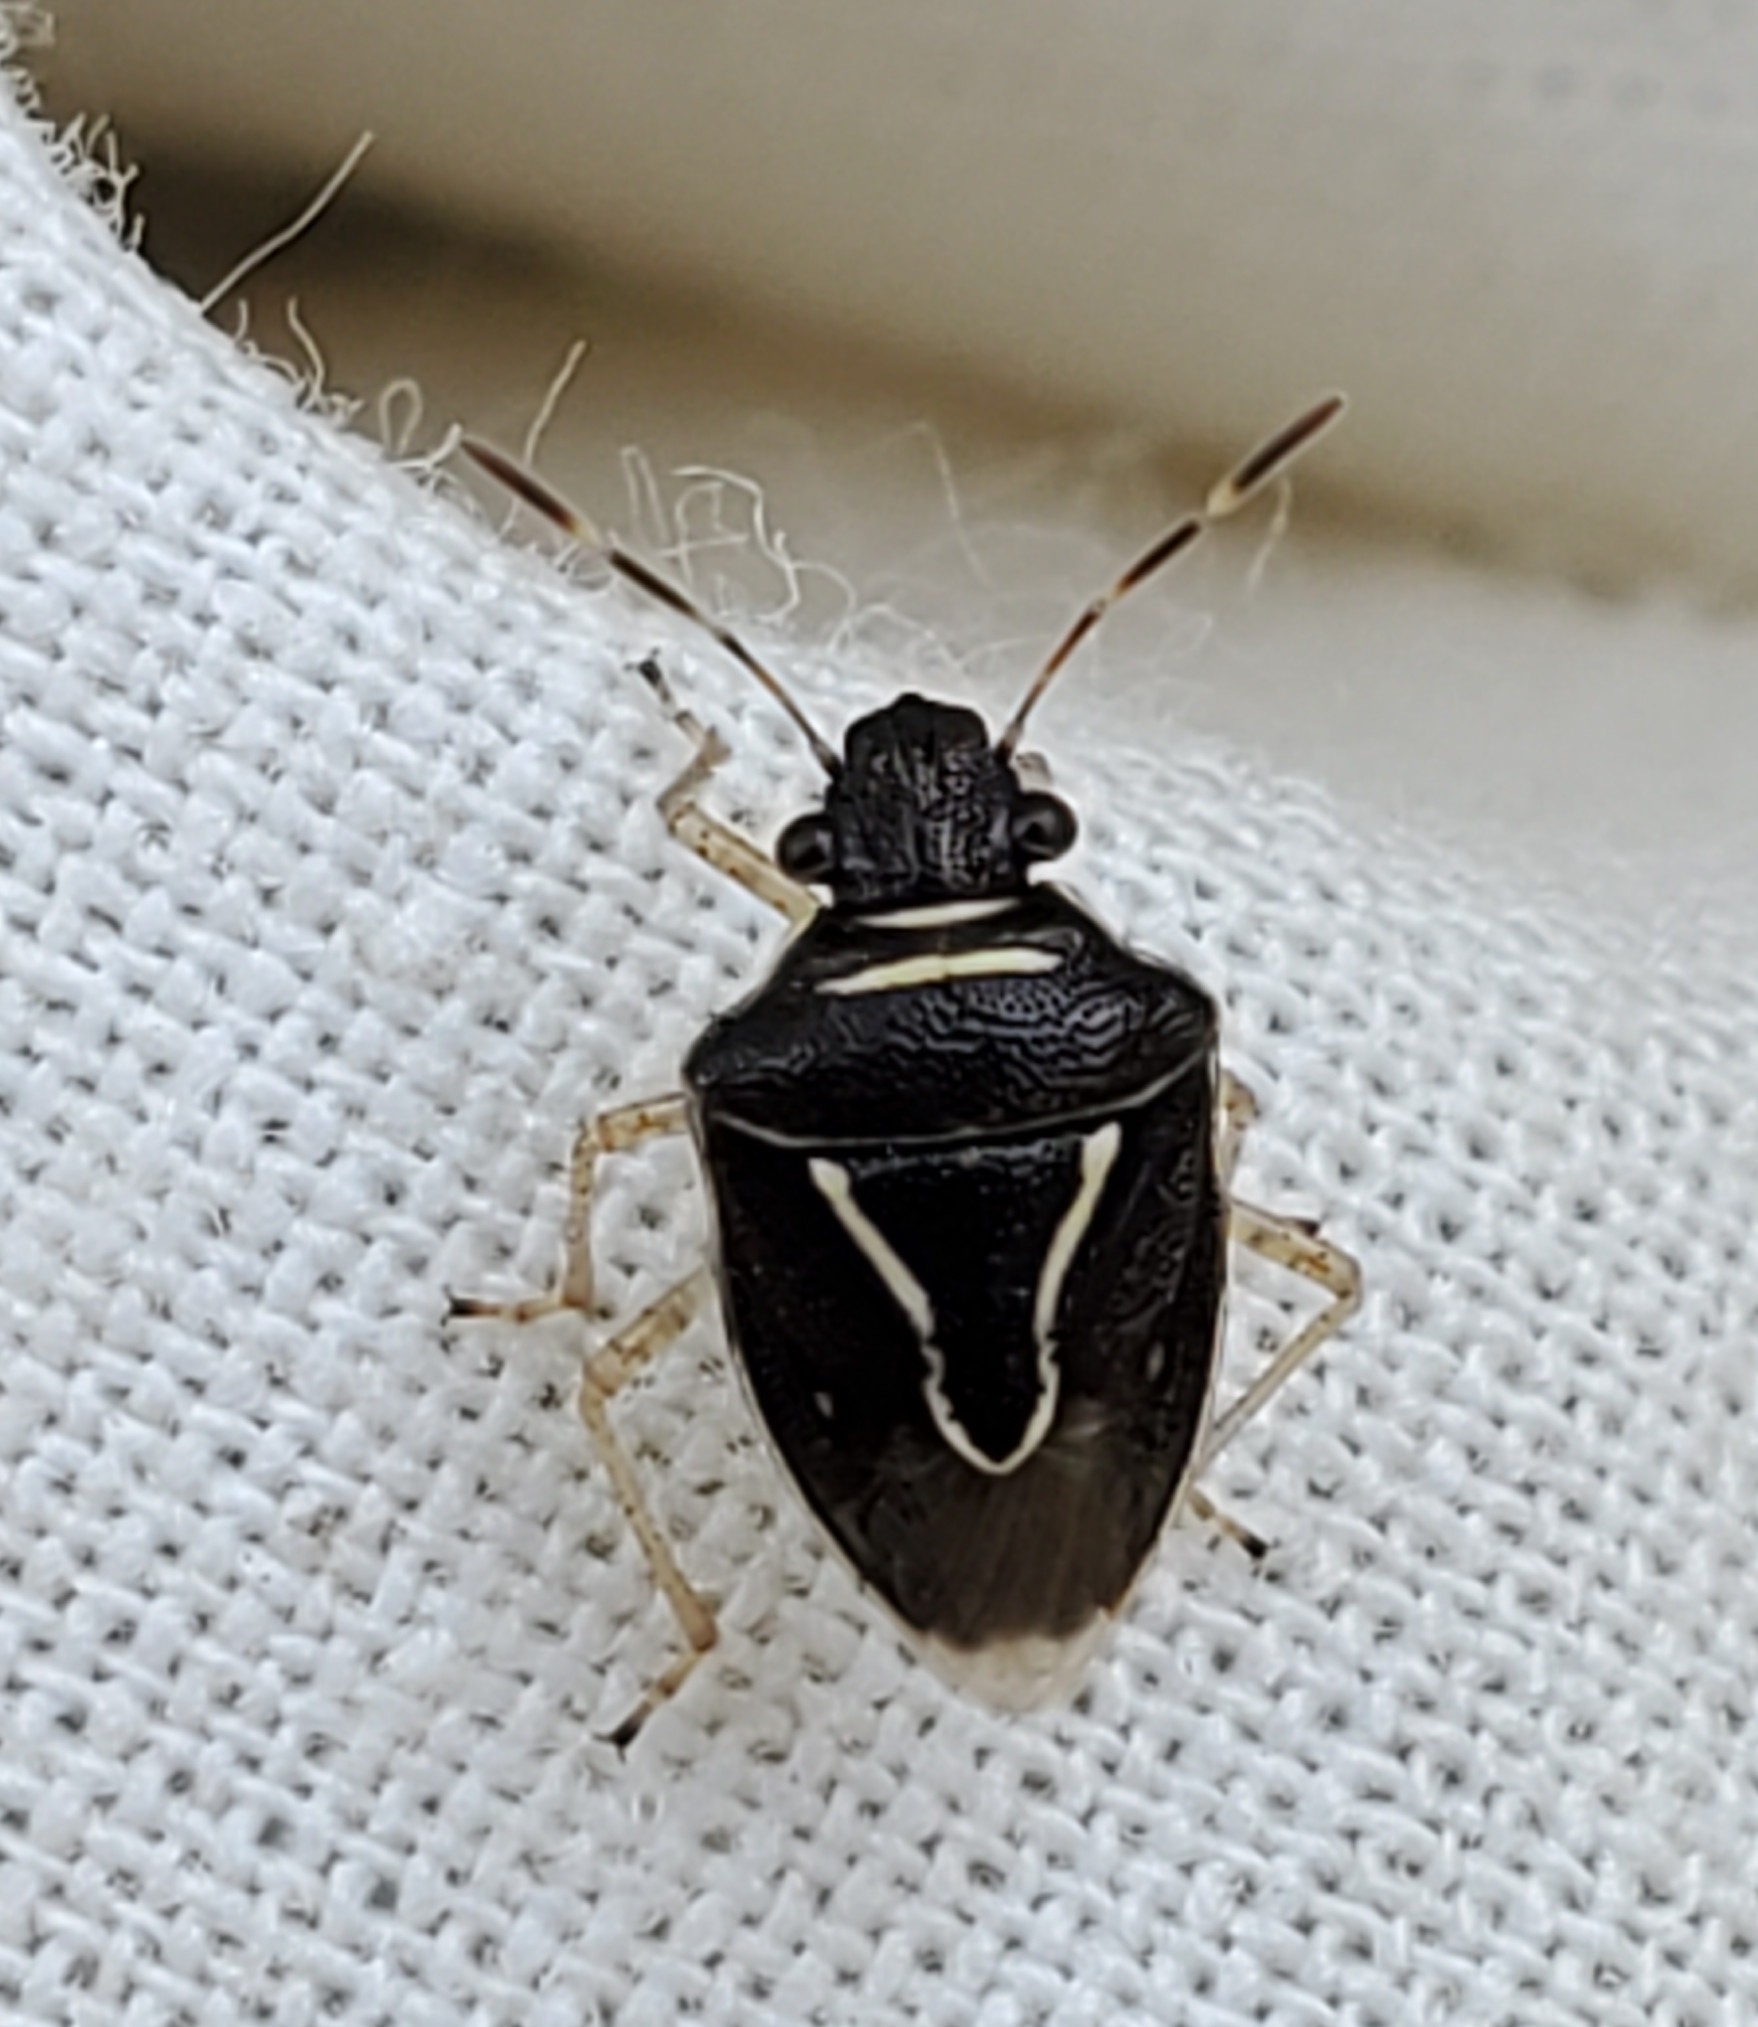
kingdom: Animalia
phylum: Arthropoda
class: Insecta
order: Hemiptera
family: Pentatomidae
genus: Mormidea
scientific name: Mormidea lugens
